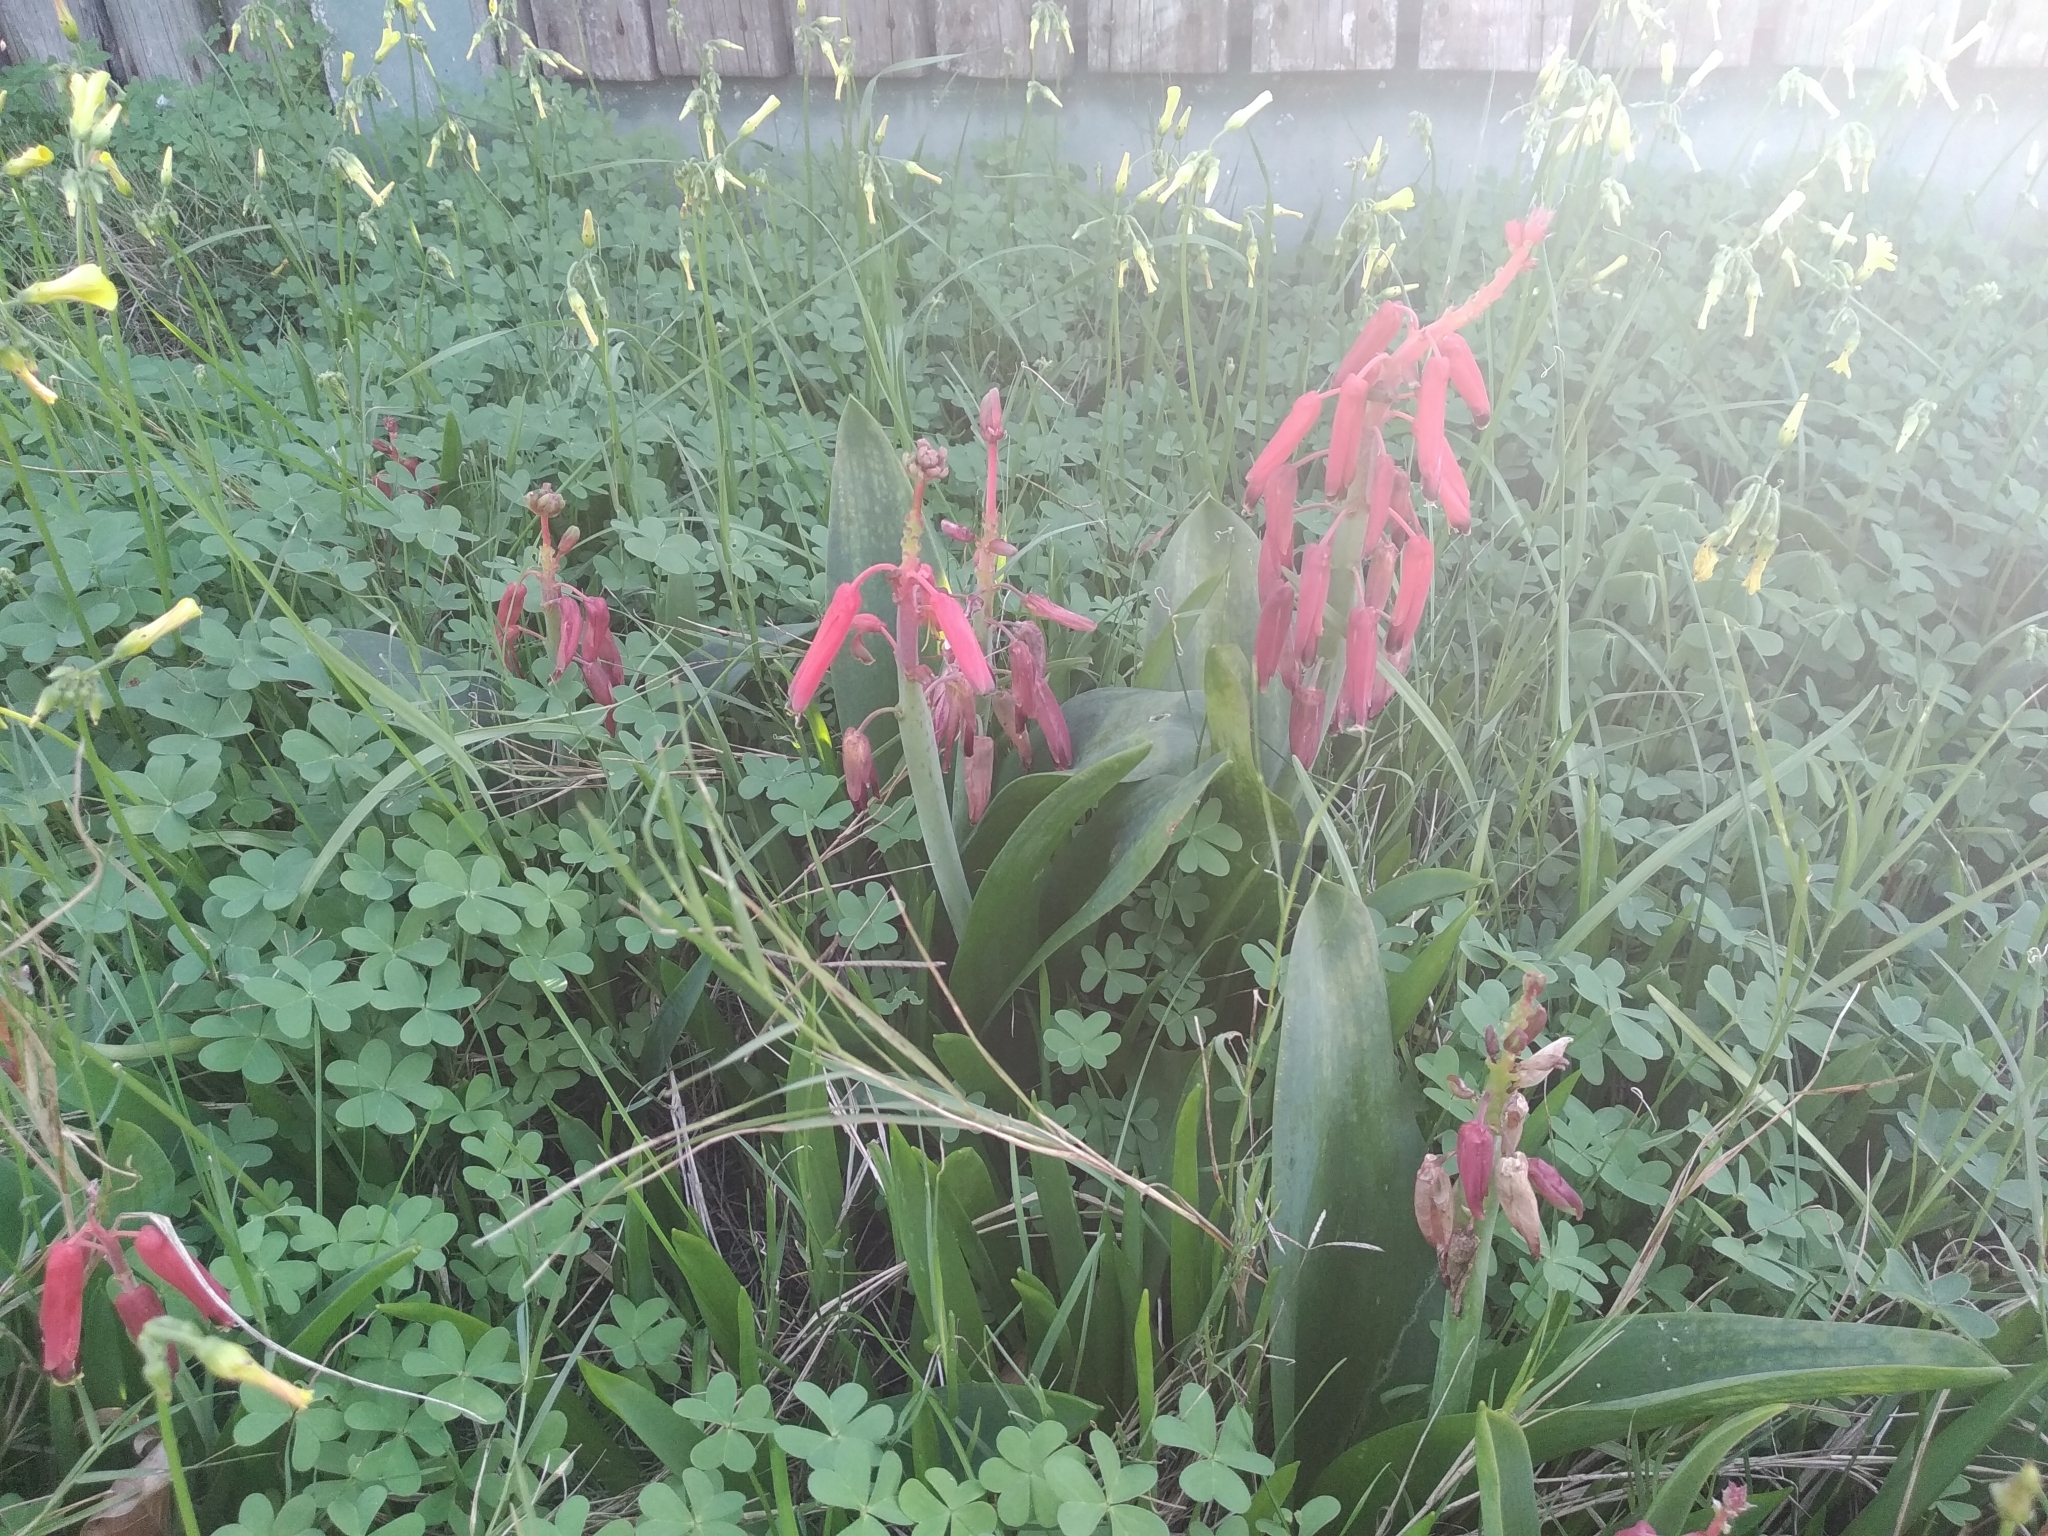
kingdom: Plantae
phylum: Tracheophyta
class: Liliopsida
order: Asparagales
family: Asparagaceae
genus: Lachenalia
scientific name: Lachenalia bulbifera
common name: Red lachenalia
